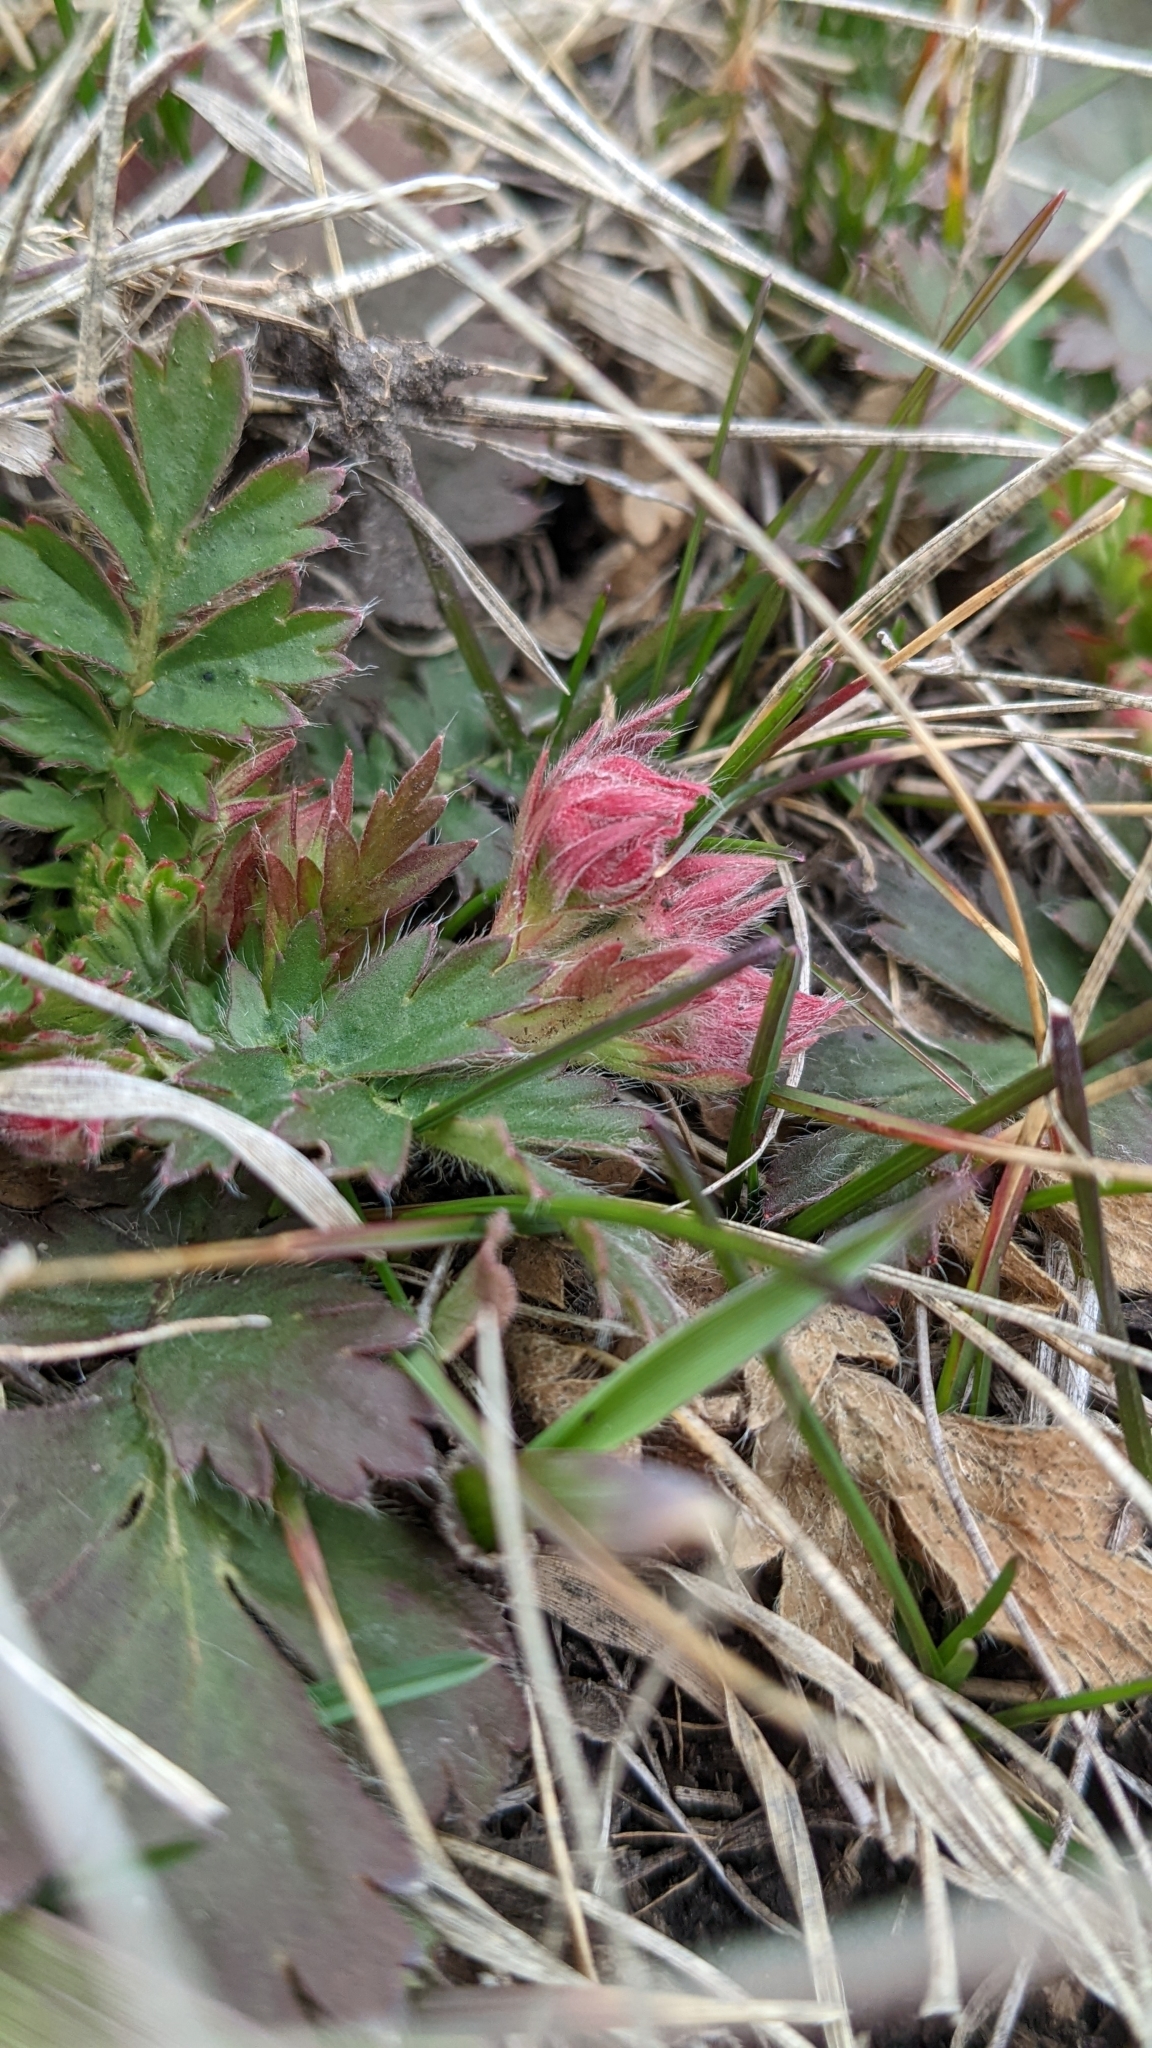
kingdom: Plantae
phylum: Tracheophyta
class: Magnoliopsida
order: Rosales
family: Rosaceae
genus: Geum
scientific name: Geum triflorum
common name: Old man's whiskers
